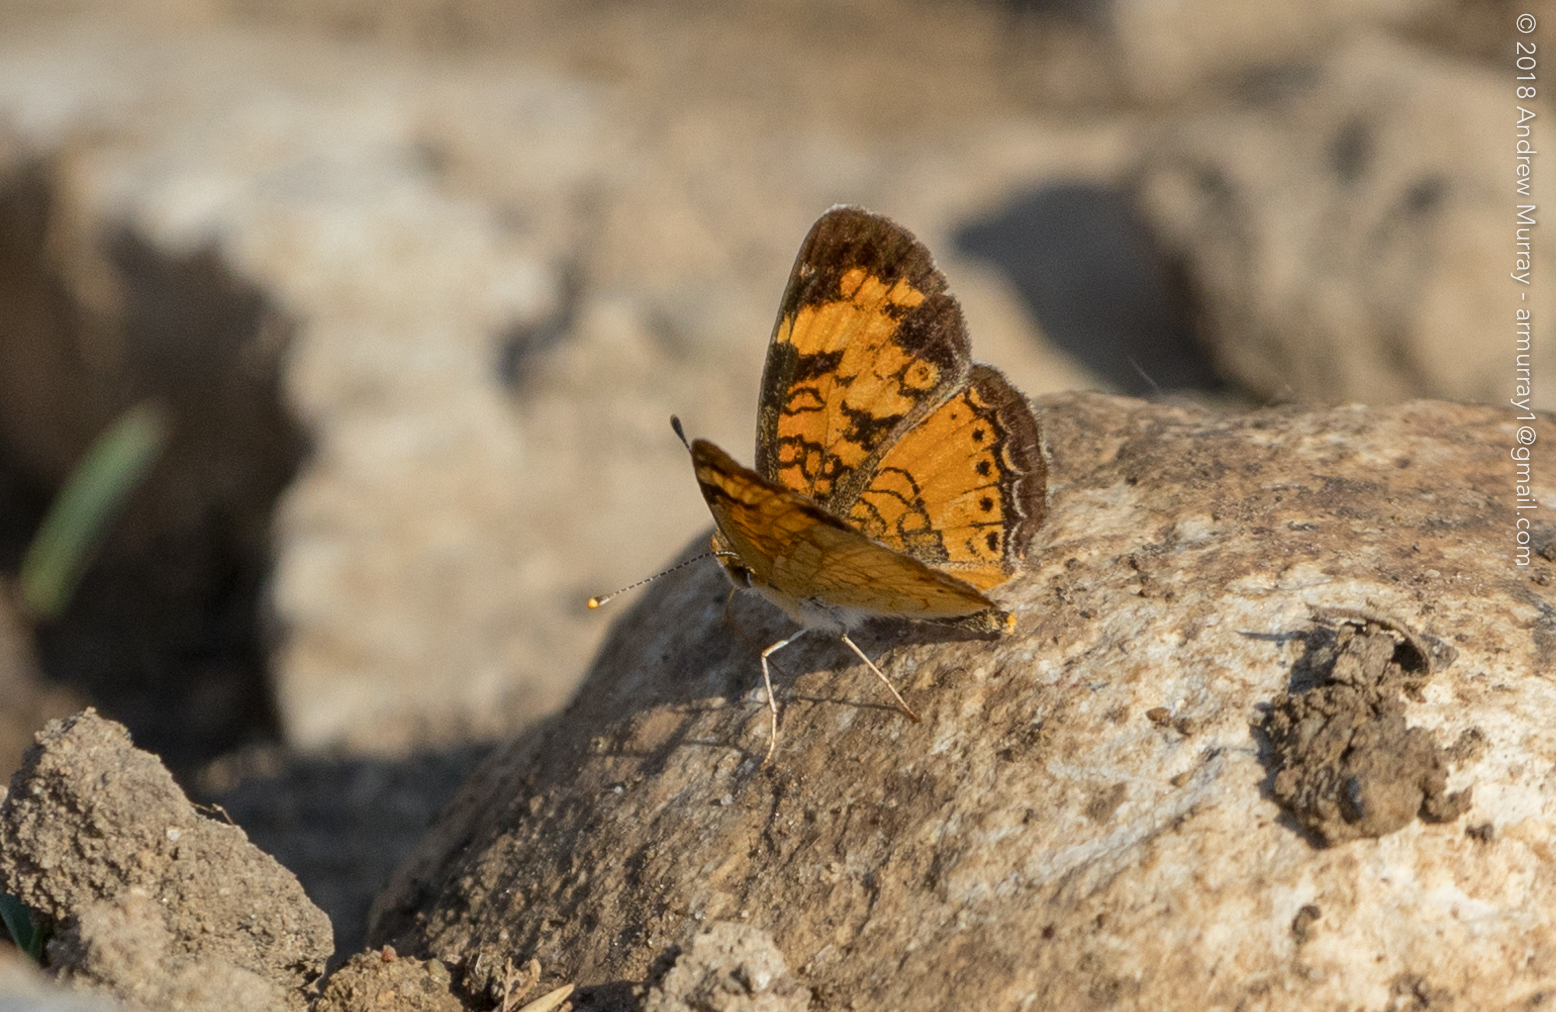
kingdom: Animalia
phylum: Arthropoda
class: Insecta
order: Lepidoptera
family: Nymphalidae
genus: Phyciodes
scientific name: Phyciodes tharos
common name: Pearl crescent
